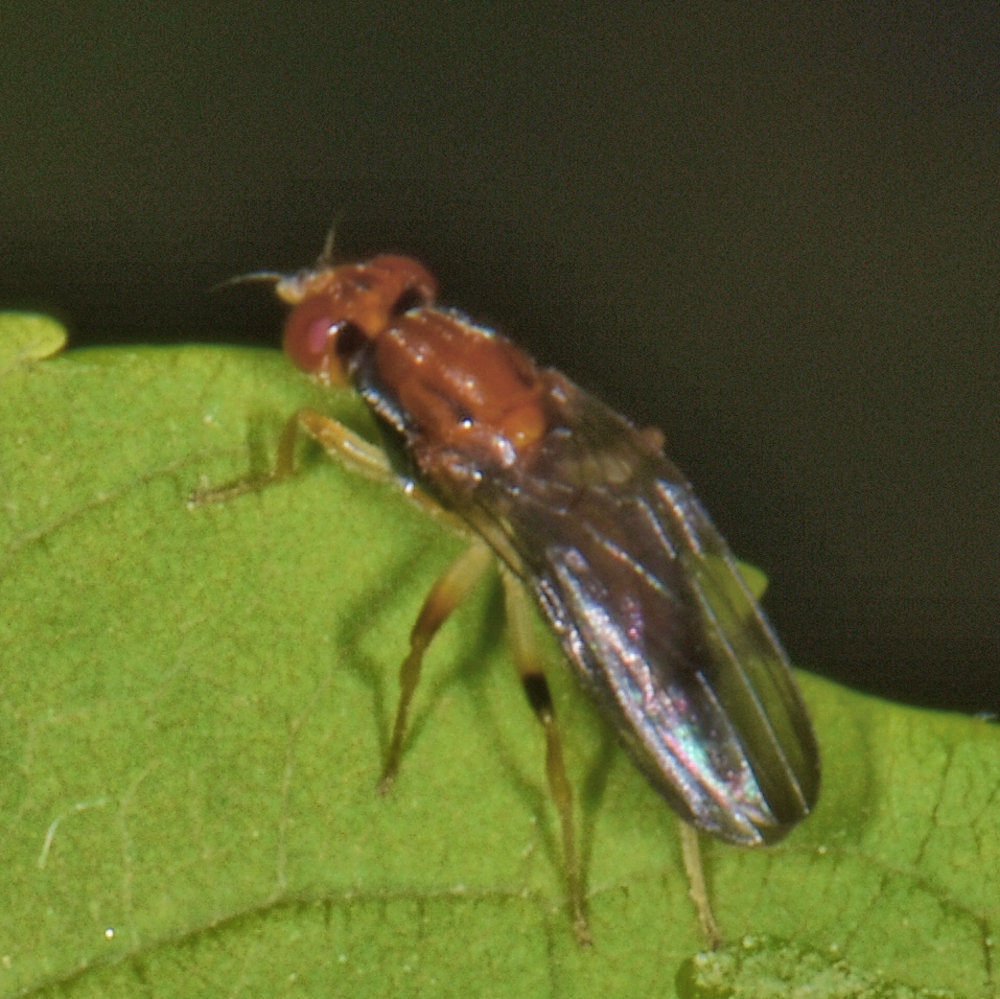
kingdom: Animalia
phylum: Arthropoda
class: Insecta
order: Diptera
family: Psilidae
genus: Chyliza
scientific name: Chyliza apicalis
